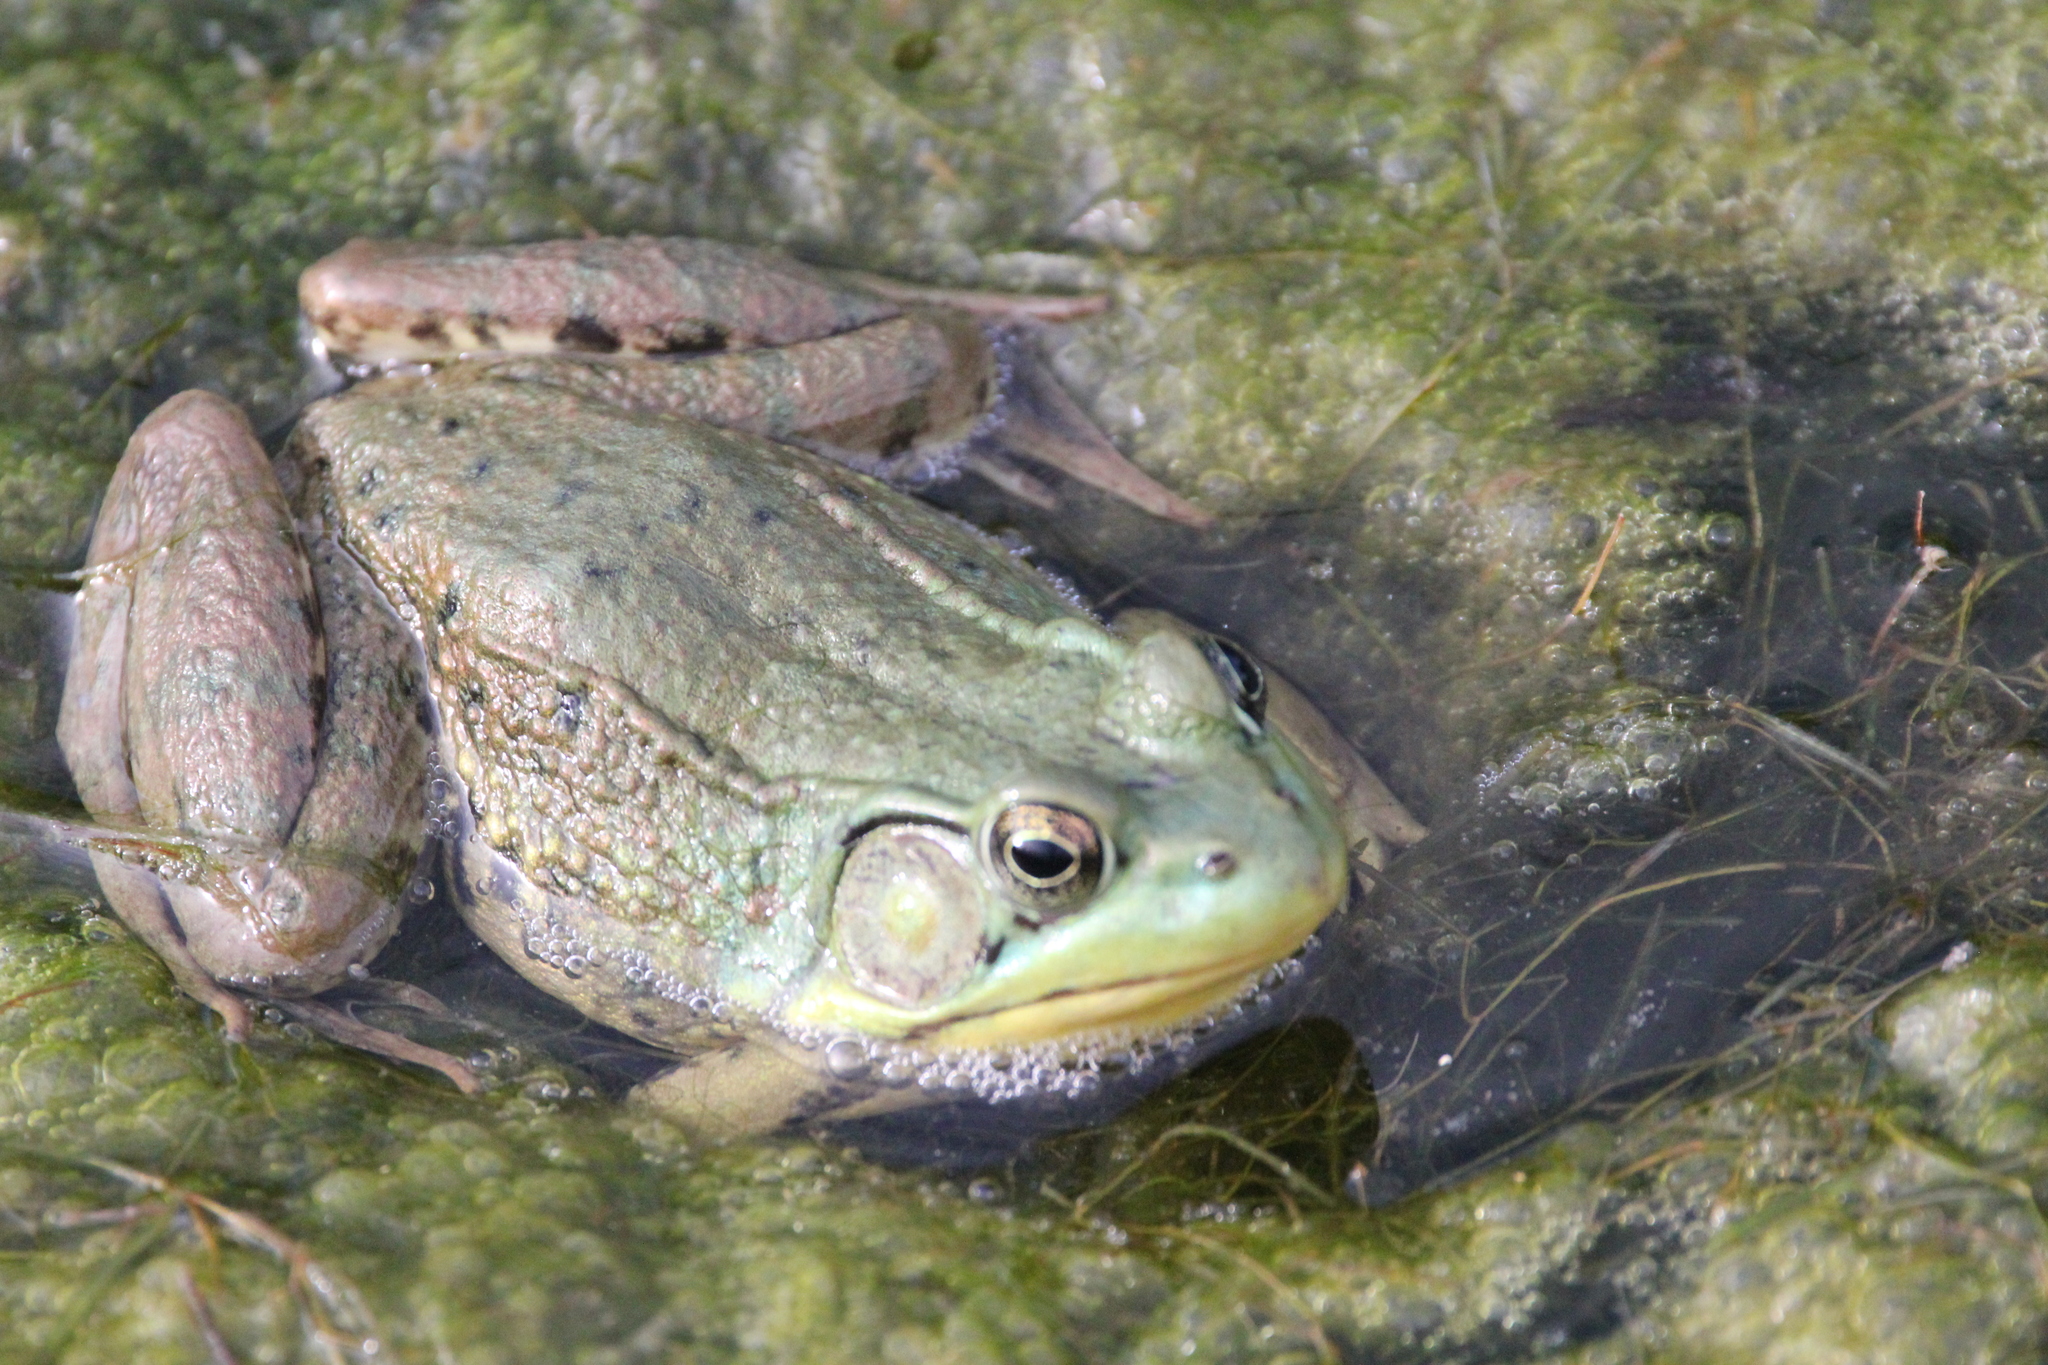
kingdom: Animalia
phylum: Chordata
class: Amphibia
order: Anura
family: Ranidae
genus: Lithobates
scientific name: Lithobates clamitans
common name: Green frog
